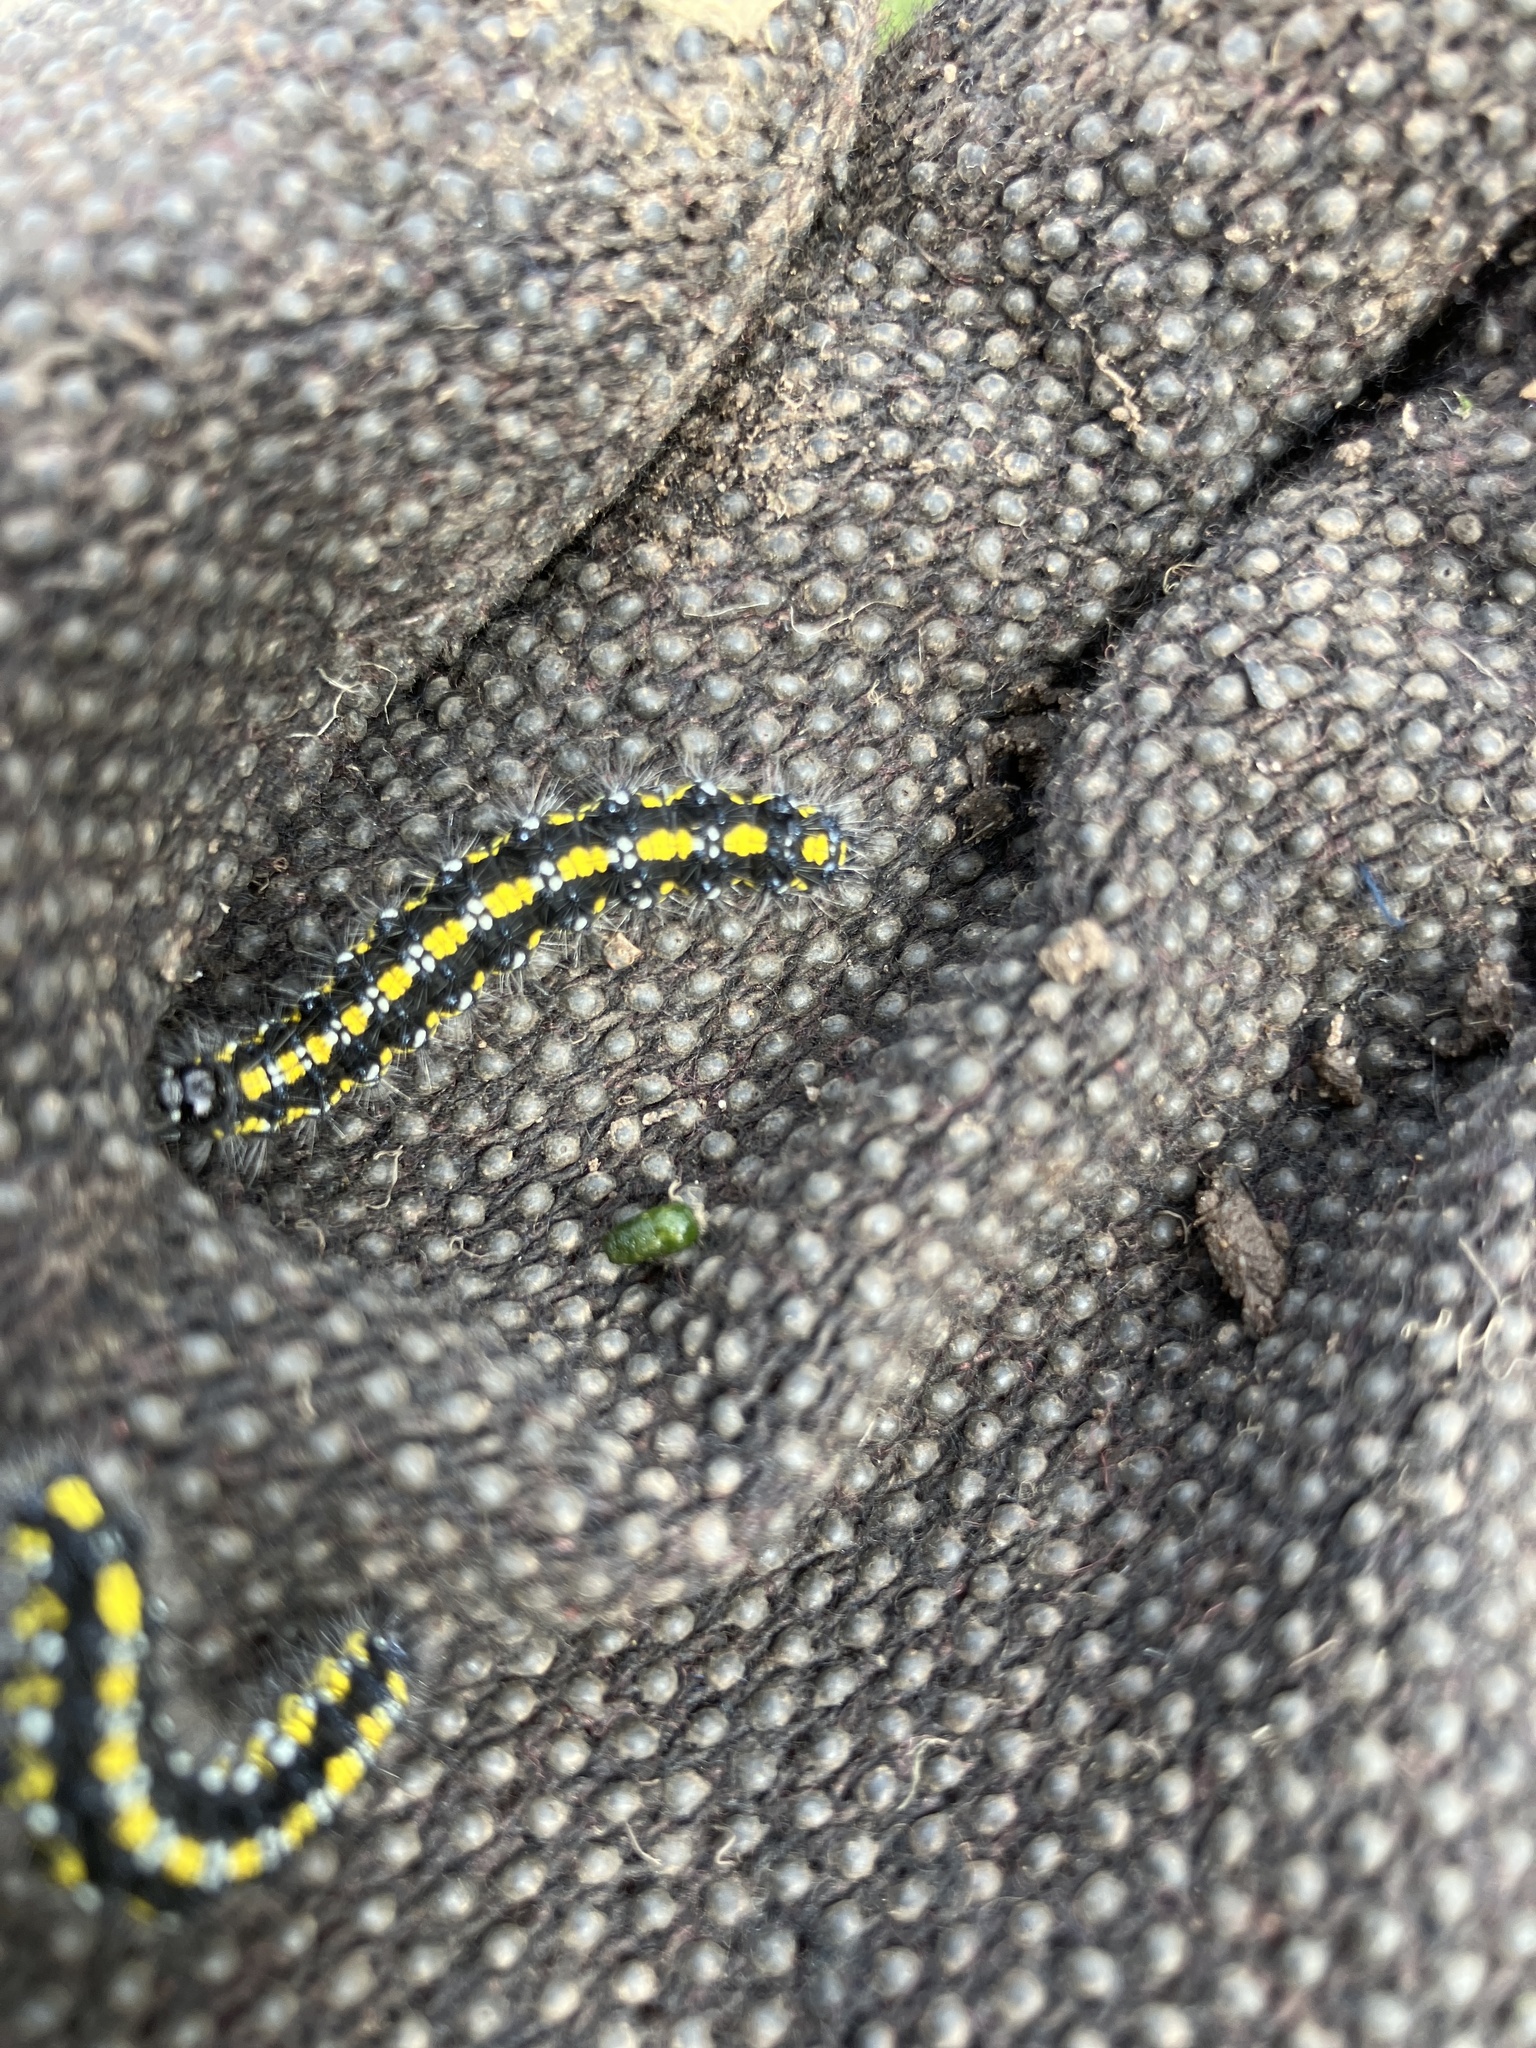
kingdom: Animalia
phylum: Arthropoda
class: Insecta
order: Lepidoptera
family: Erebidae
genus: Callimorpha
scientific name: Callimorpha dominula
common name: Scarlet tiger
